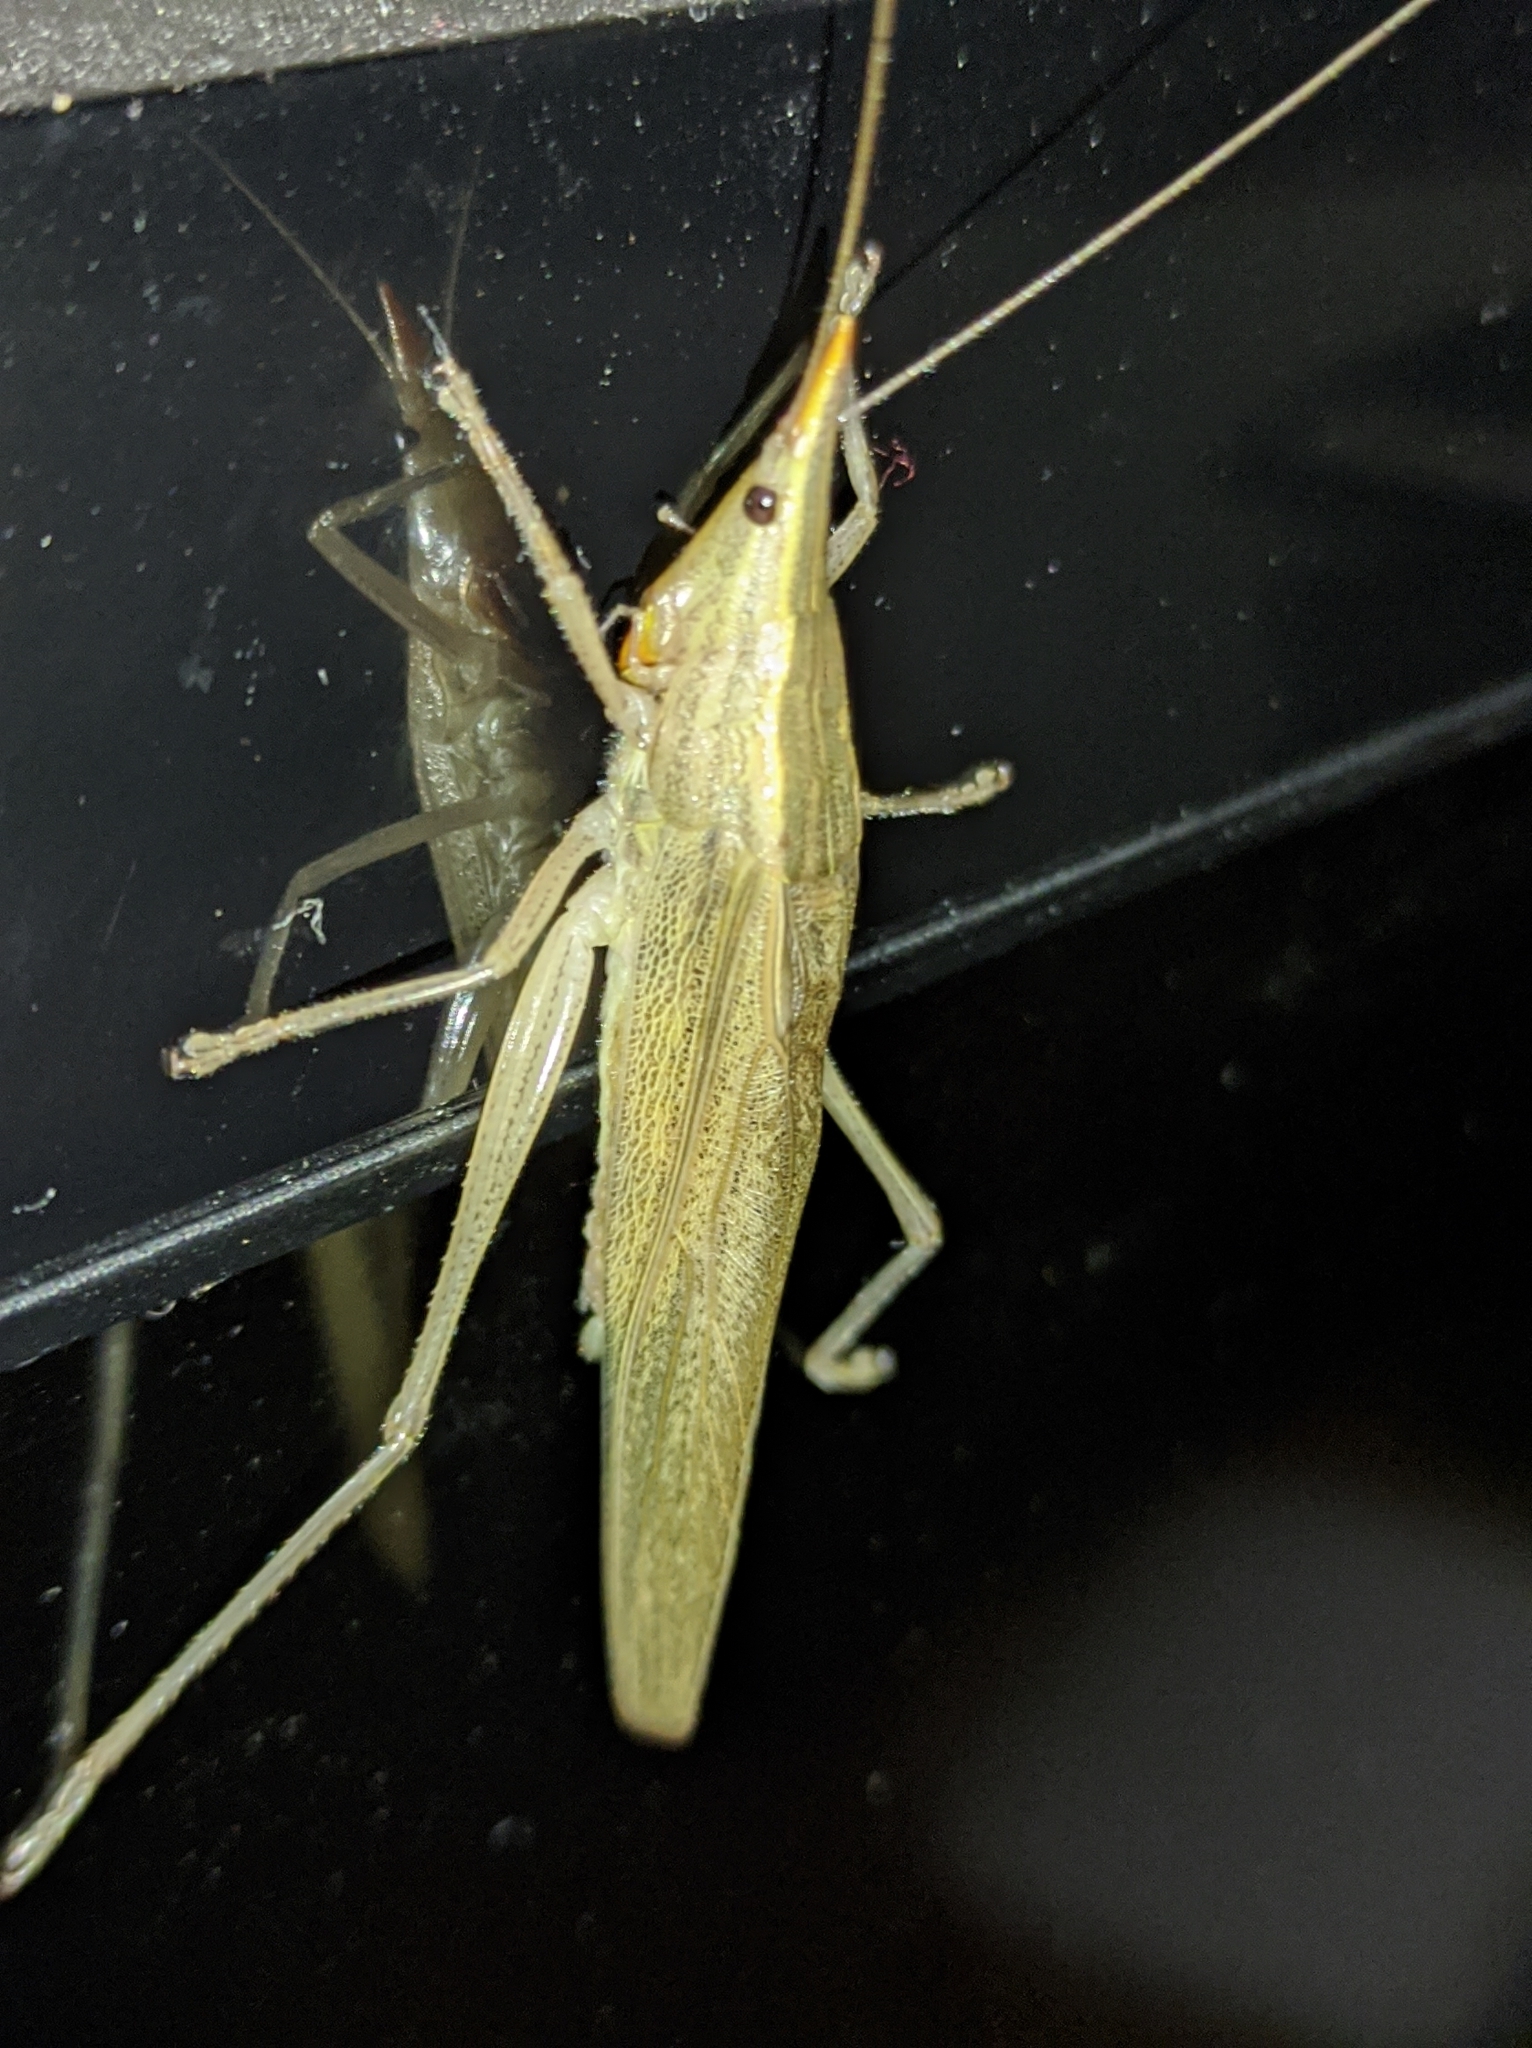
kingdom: Animalia
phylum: Arthropoda
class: Insecta
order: Orthoptera
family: Tettigoniidae
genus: Neoconocephalus
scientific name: Neoconocephalus flavirostris
